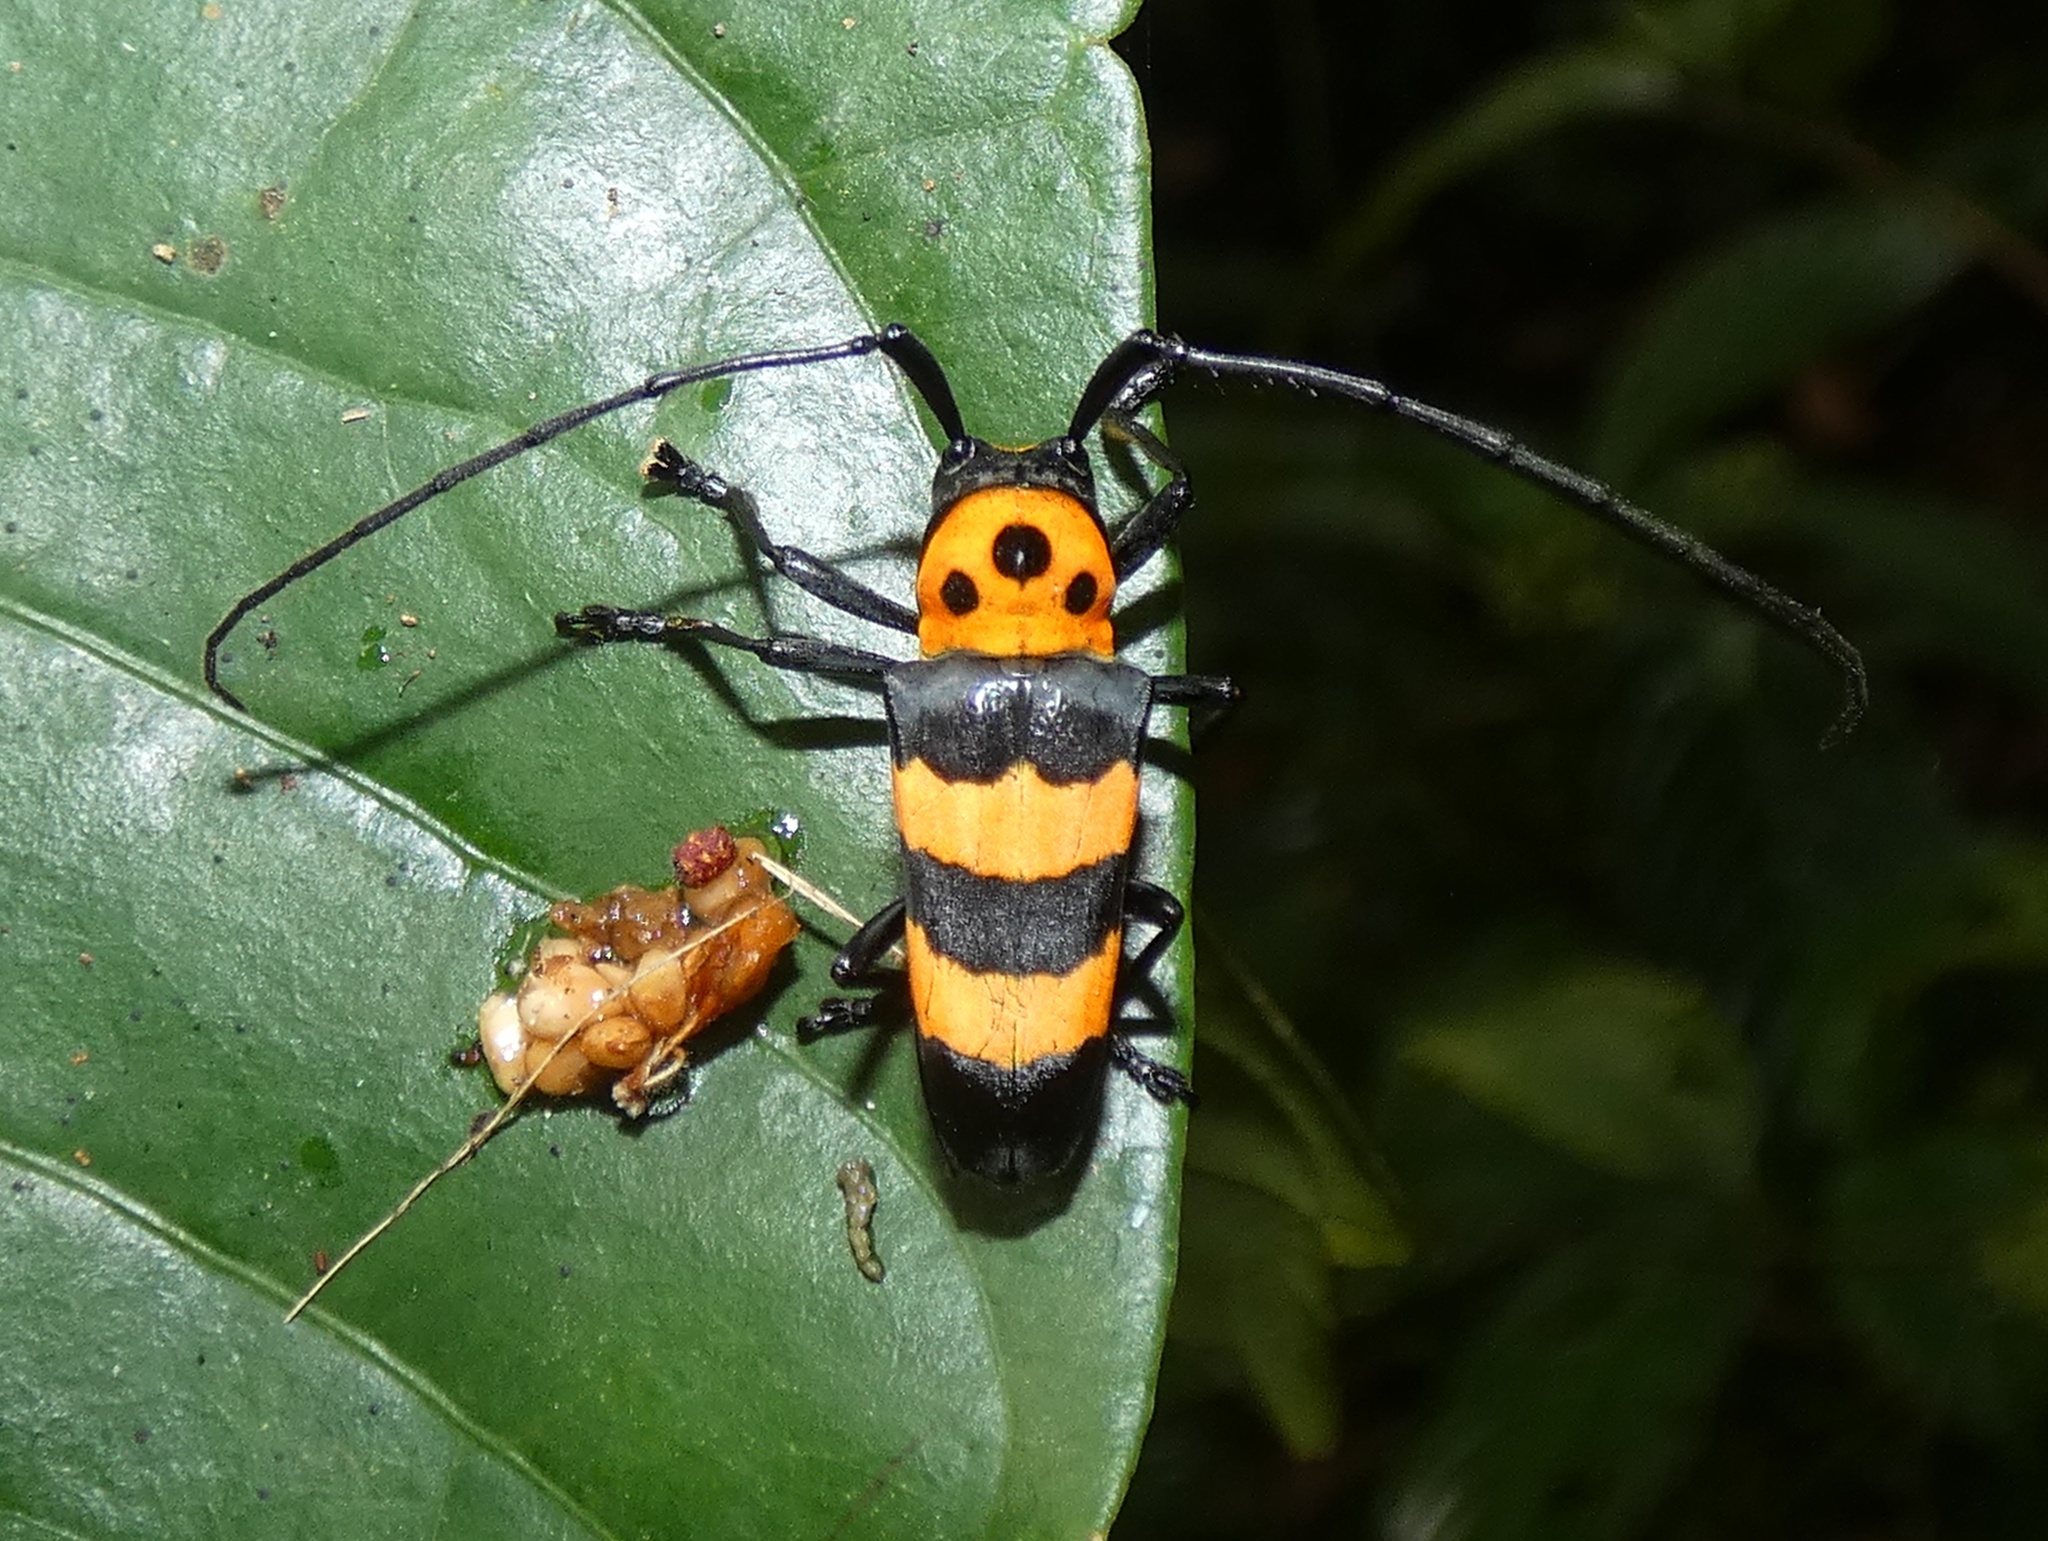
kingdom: Animalia
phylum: Arthropoda
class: Insecta
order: Coleoptera
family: Cerambycidae
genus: Oedudes
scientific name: Oedudes spectabilis
